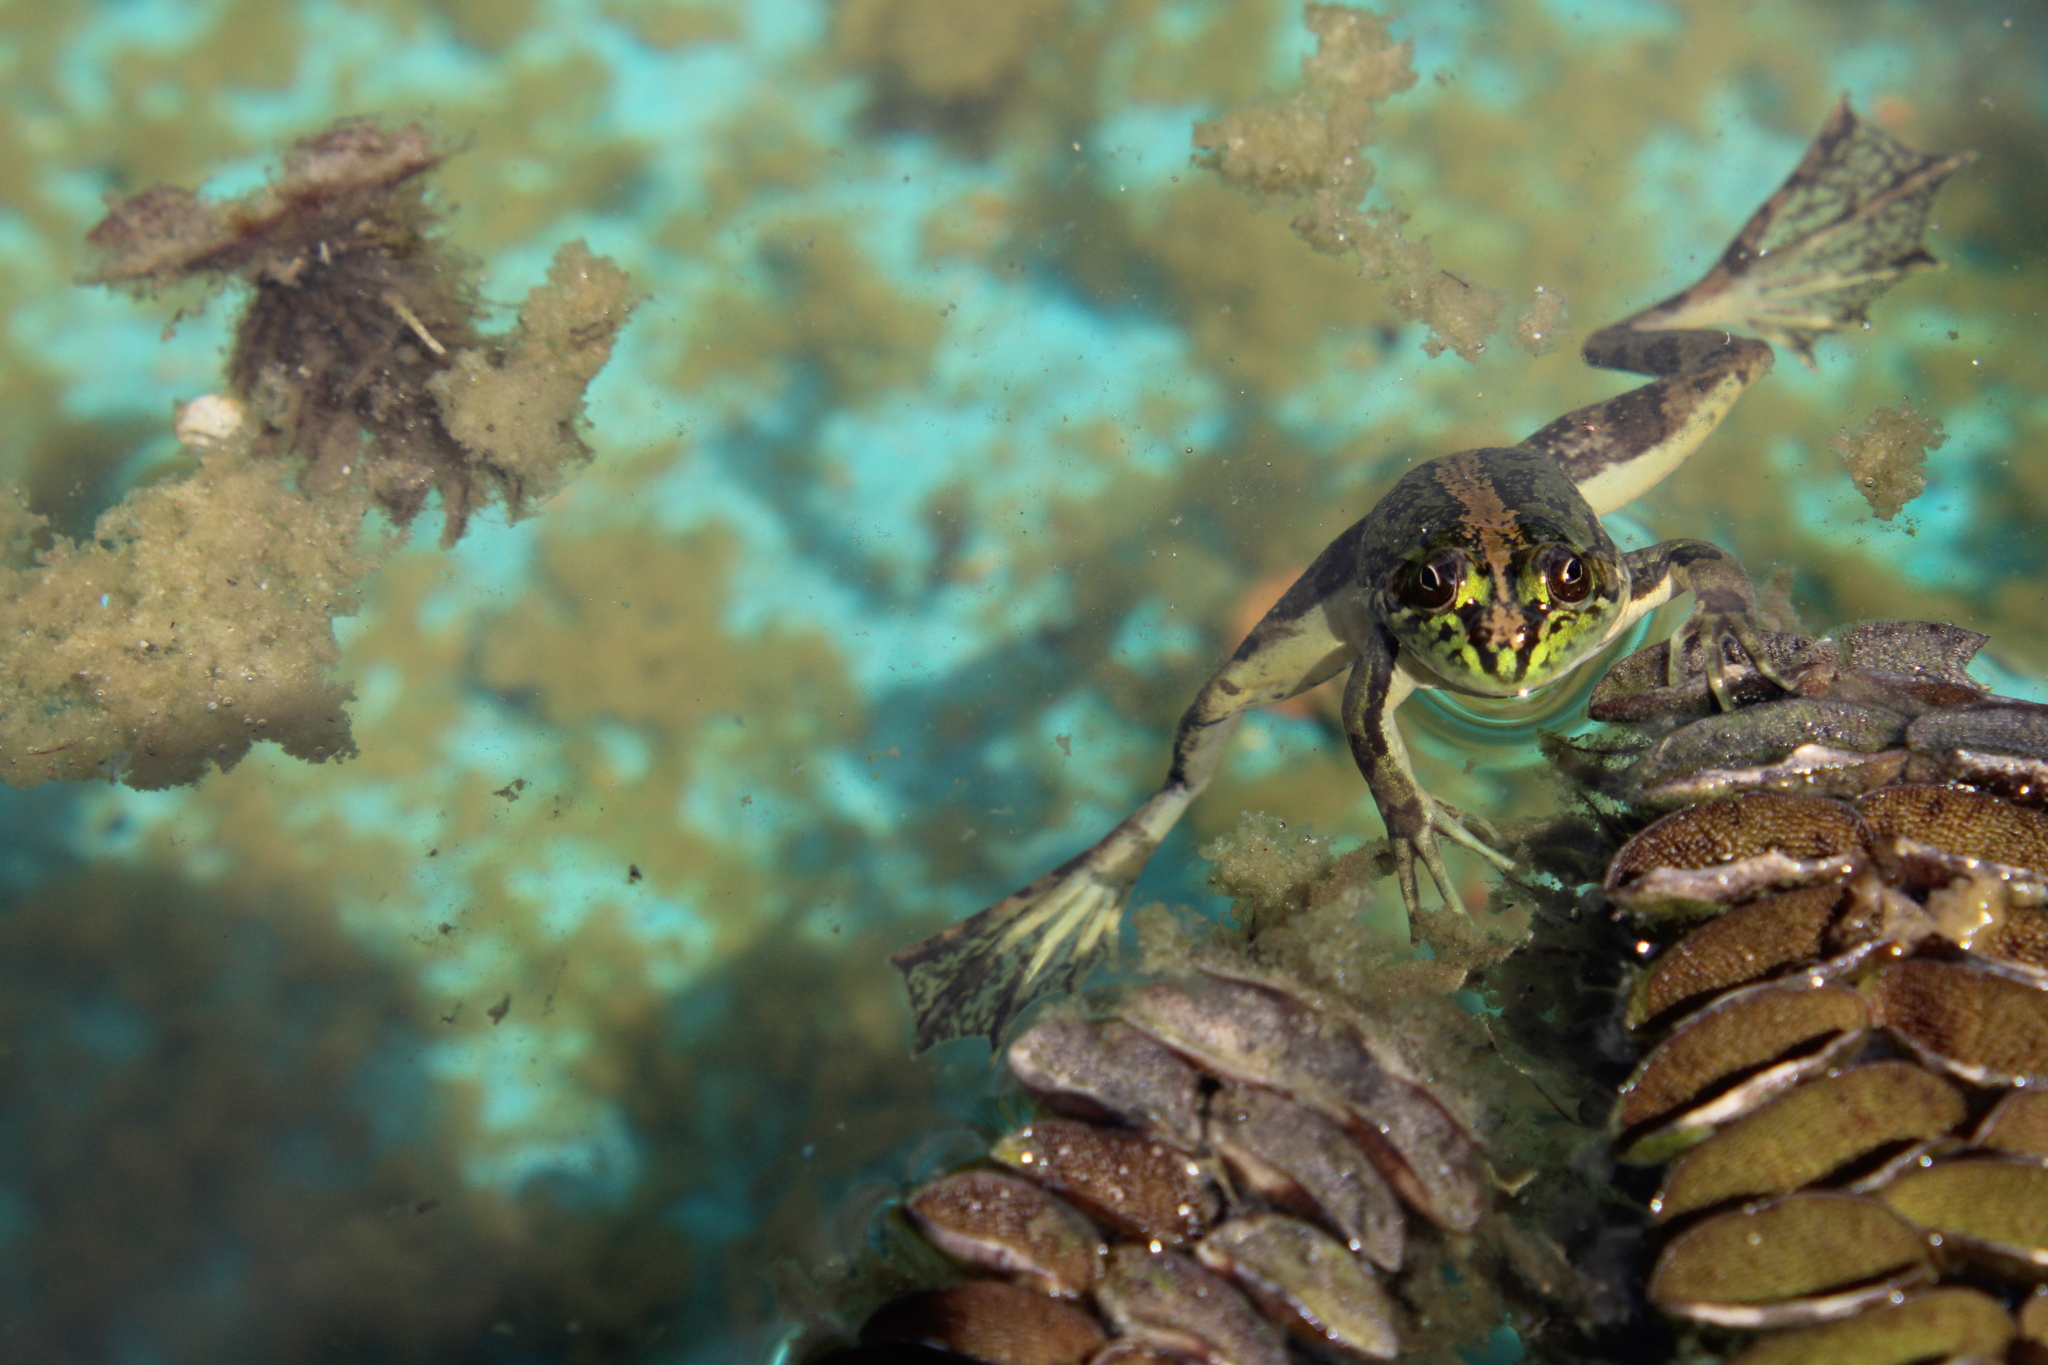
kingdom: Animalia
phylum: Chordata
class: Amphibia
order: Anura
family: Hylidae
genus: Pseudis
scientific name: Pseudis minuta
